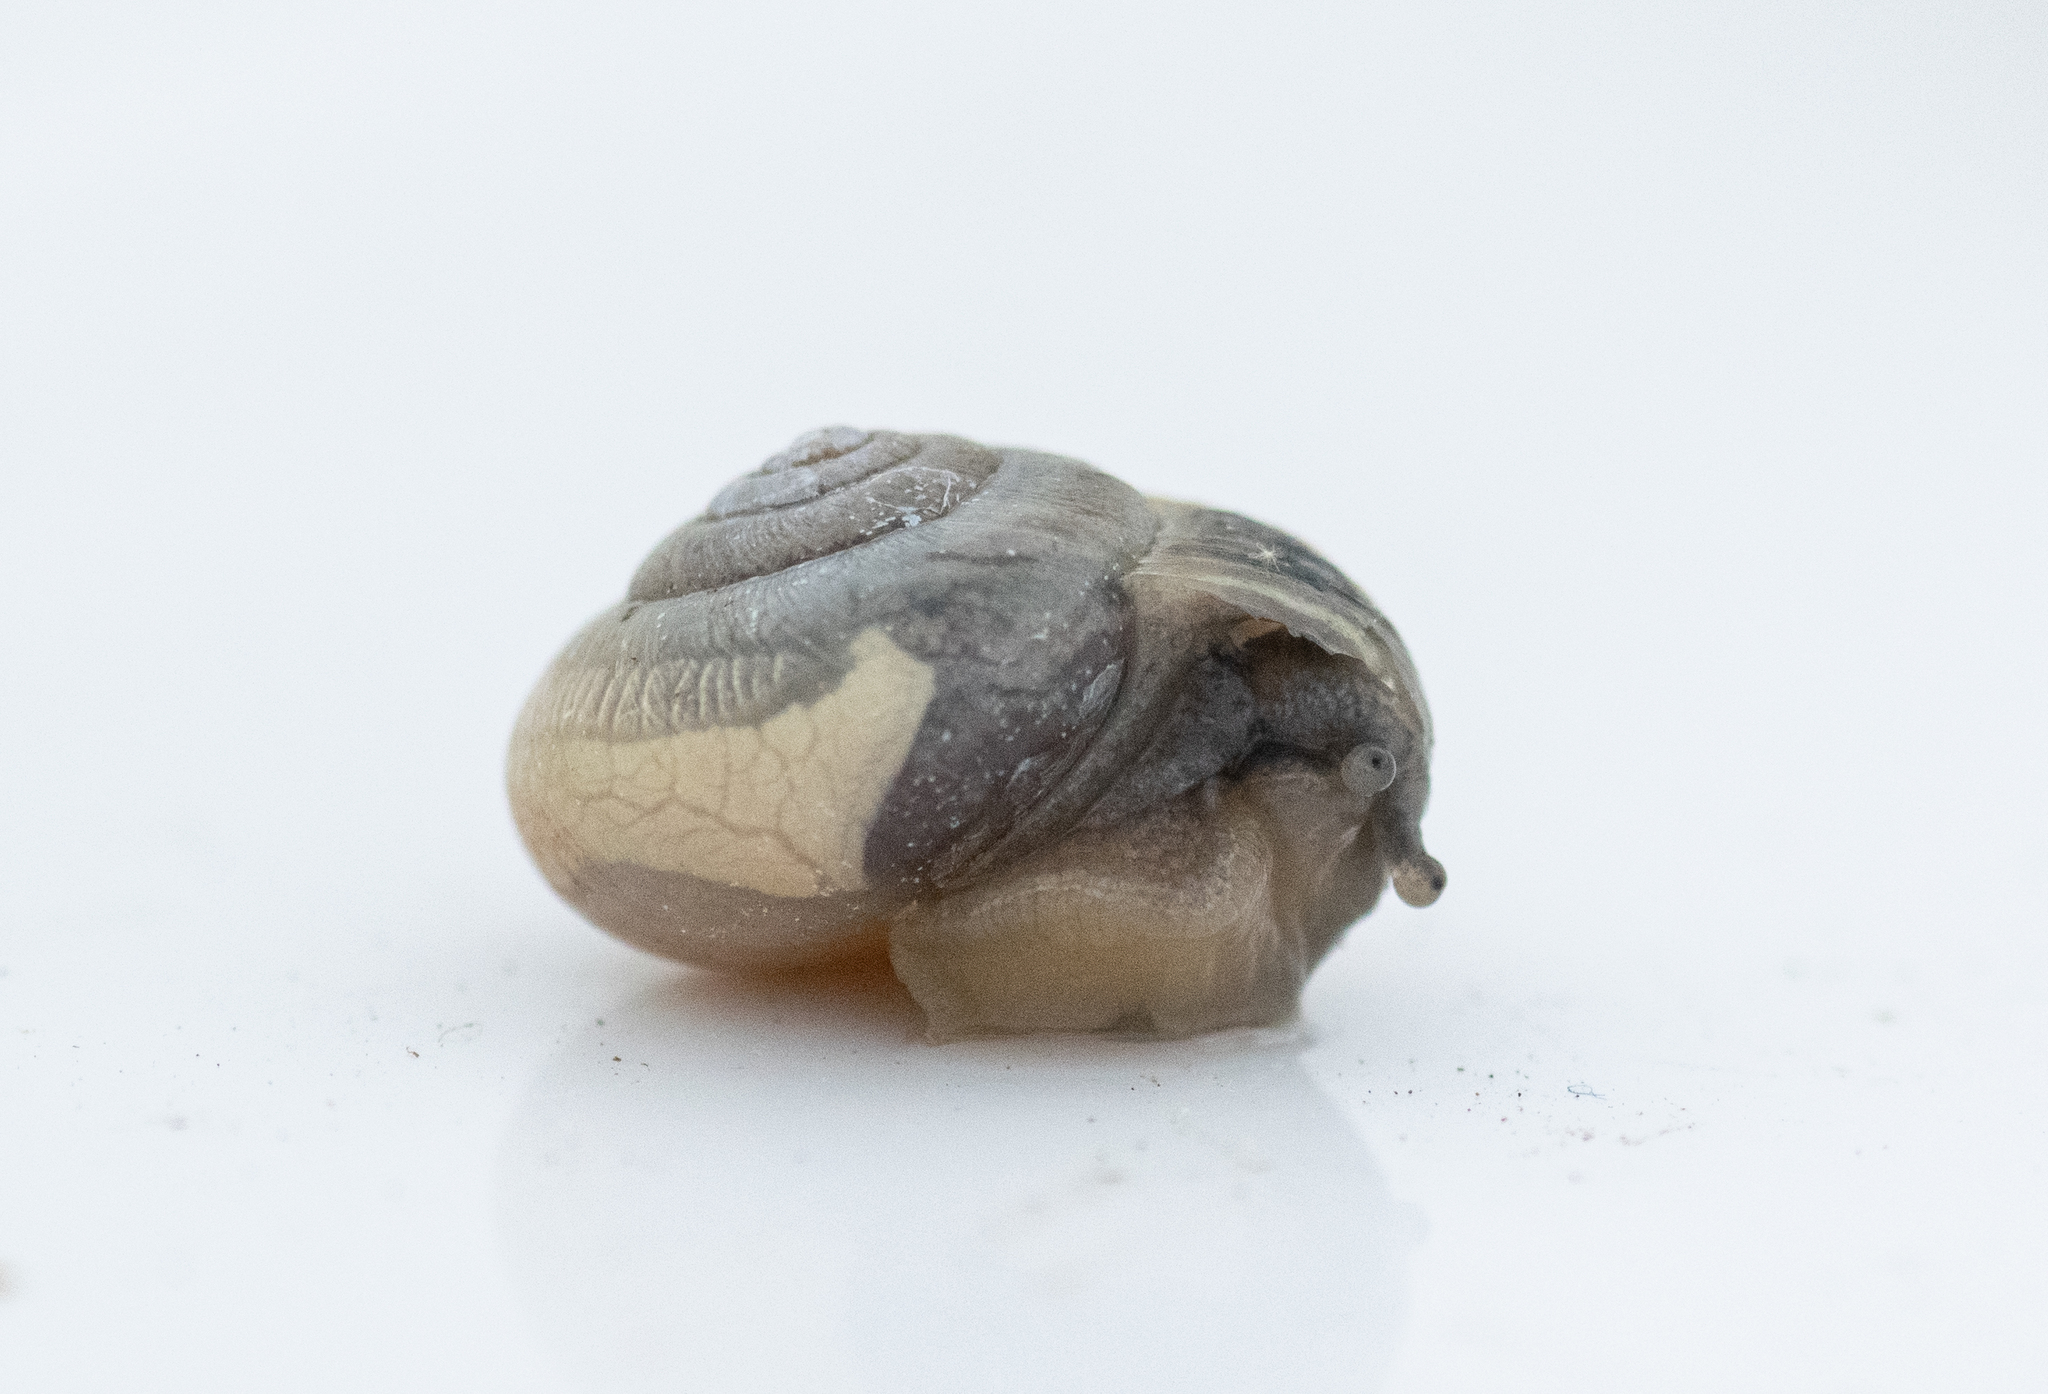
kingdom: Animalia
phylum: Mollusca
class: Gastropoda
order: Stylommatophora
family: Hygromiidae
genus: Monacha
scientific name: Monacha cantiana
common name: Kentish snail
